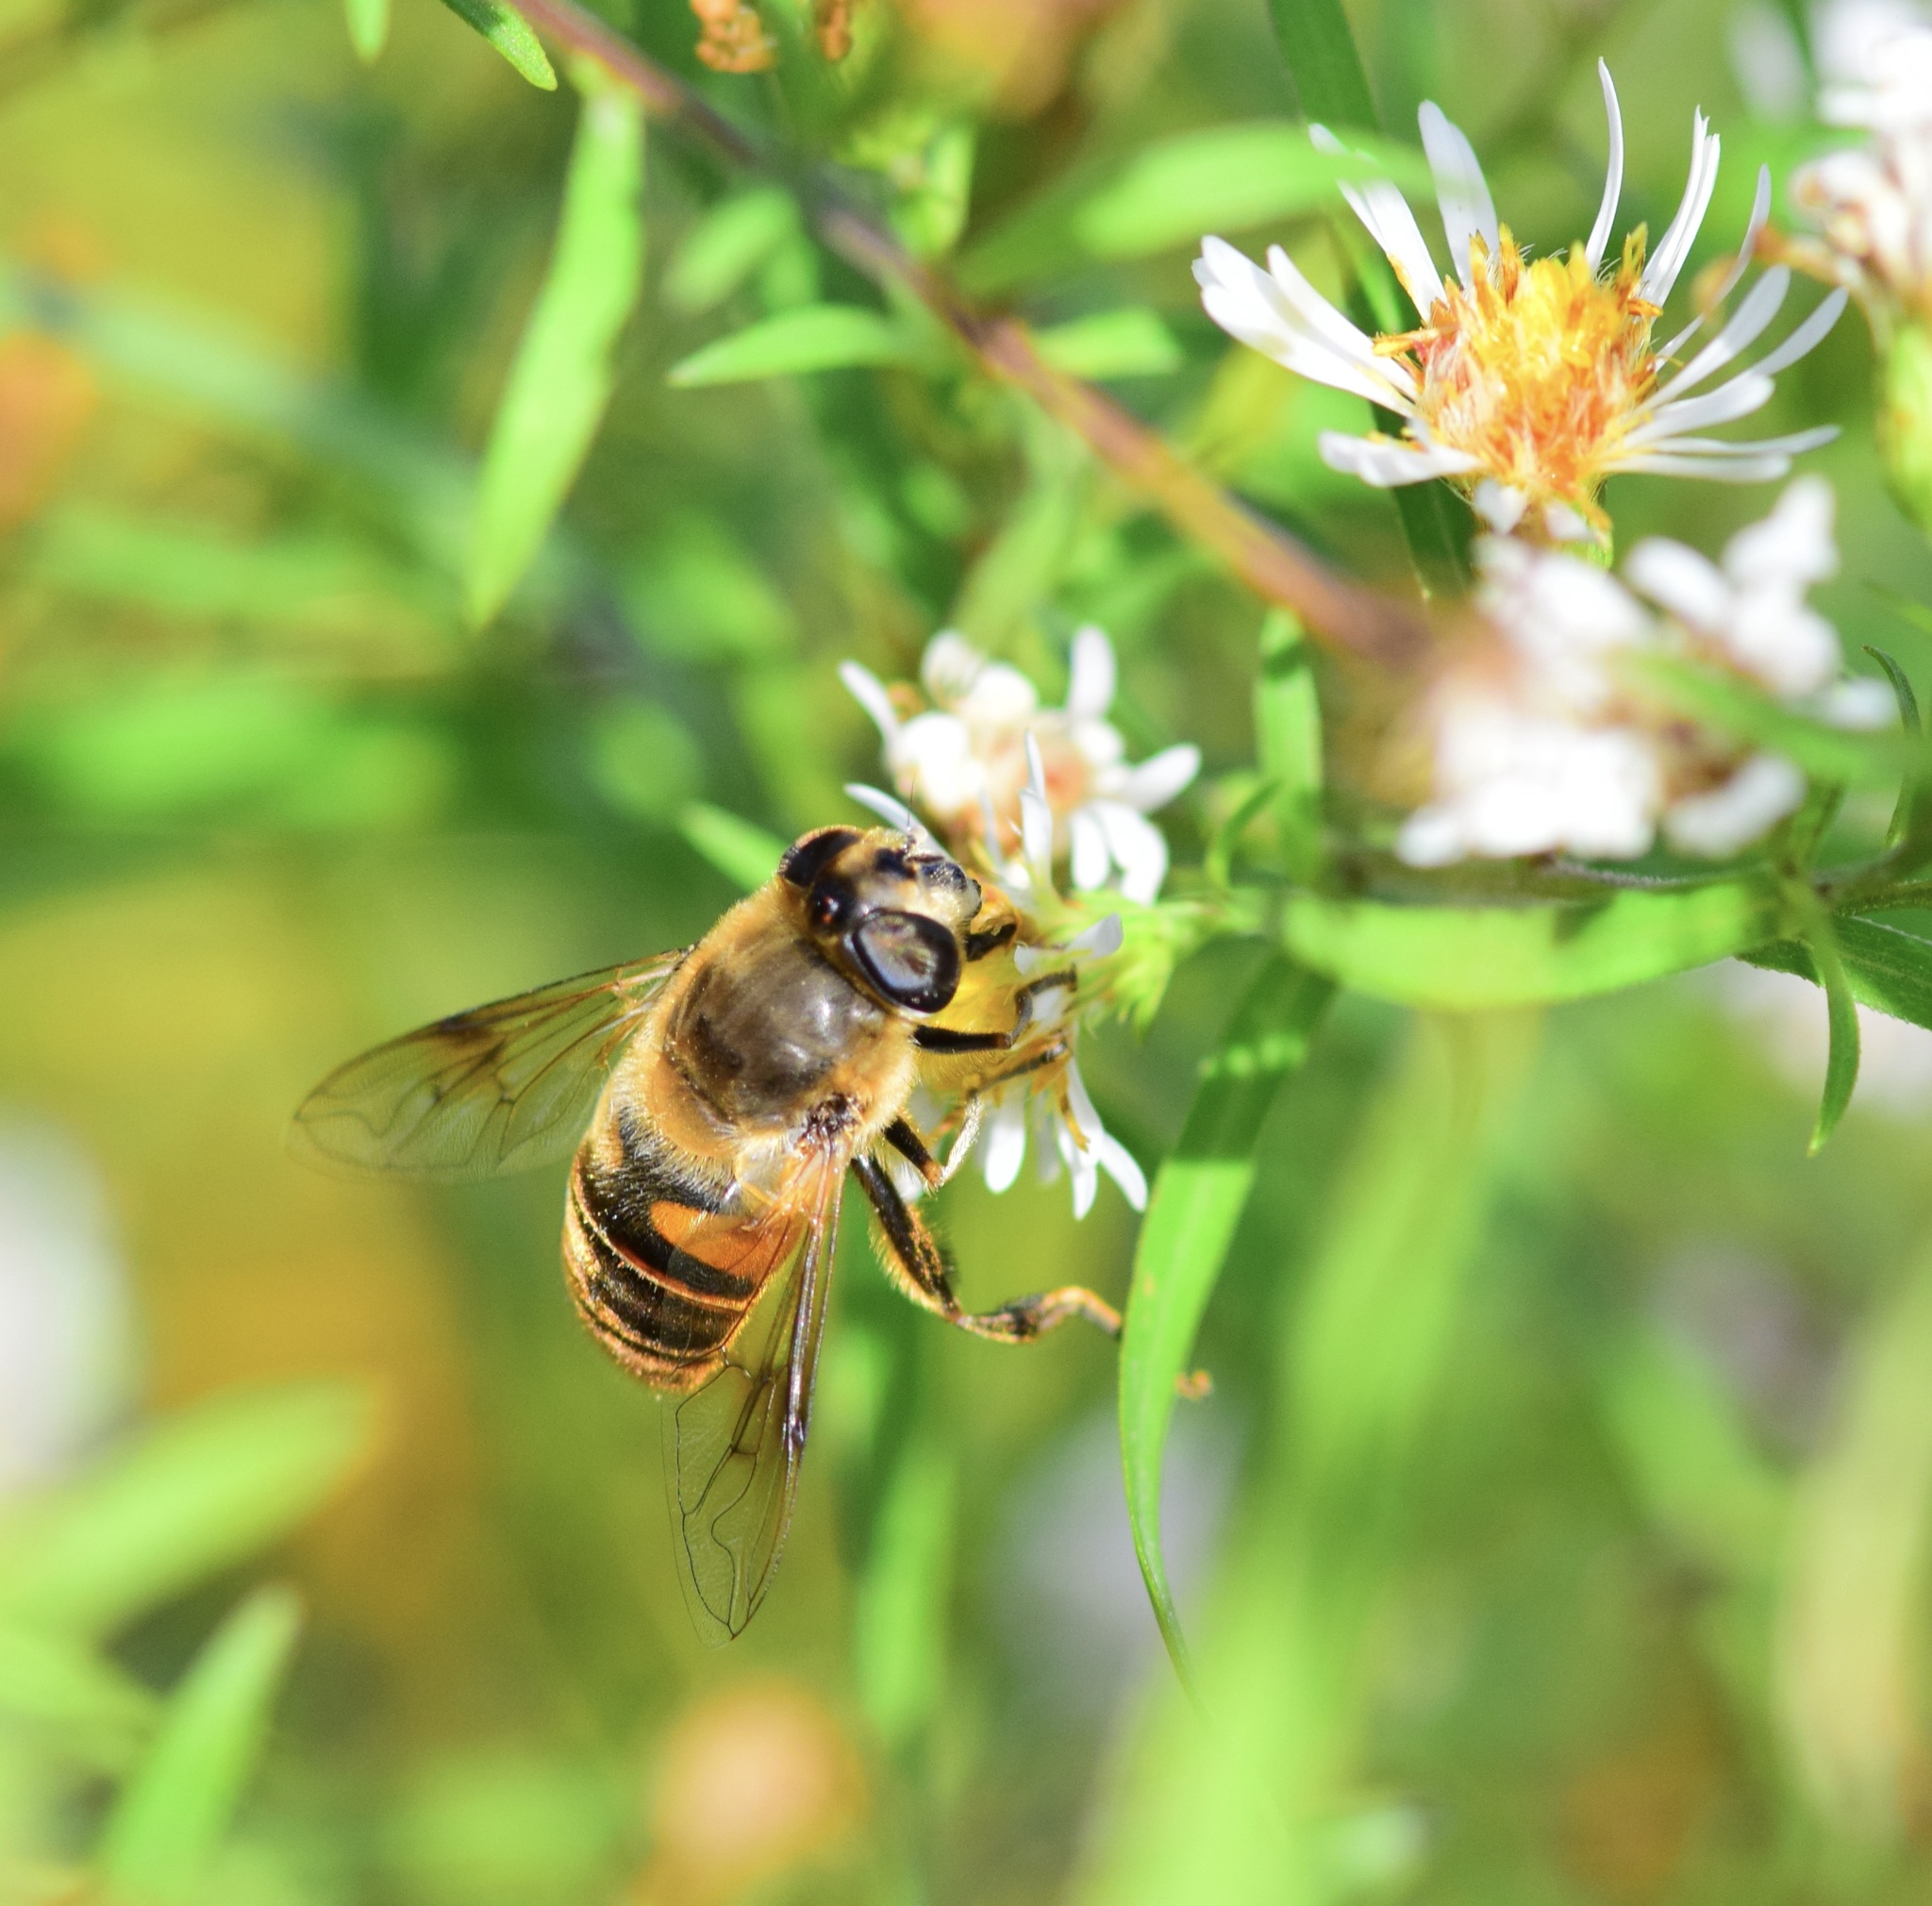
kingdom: Animalia
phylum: Arthropoda
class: Insecta
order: Diptera
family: Syrphidae
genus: Eristalis
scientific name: Eristalis tenax
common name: Drone fly
